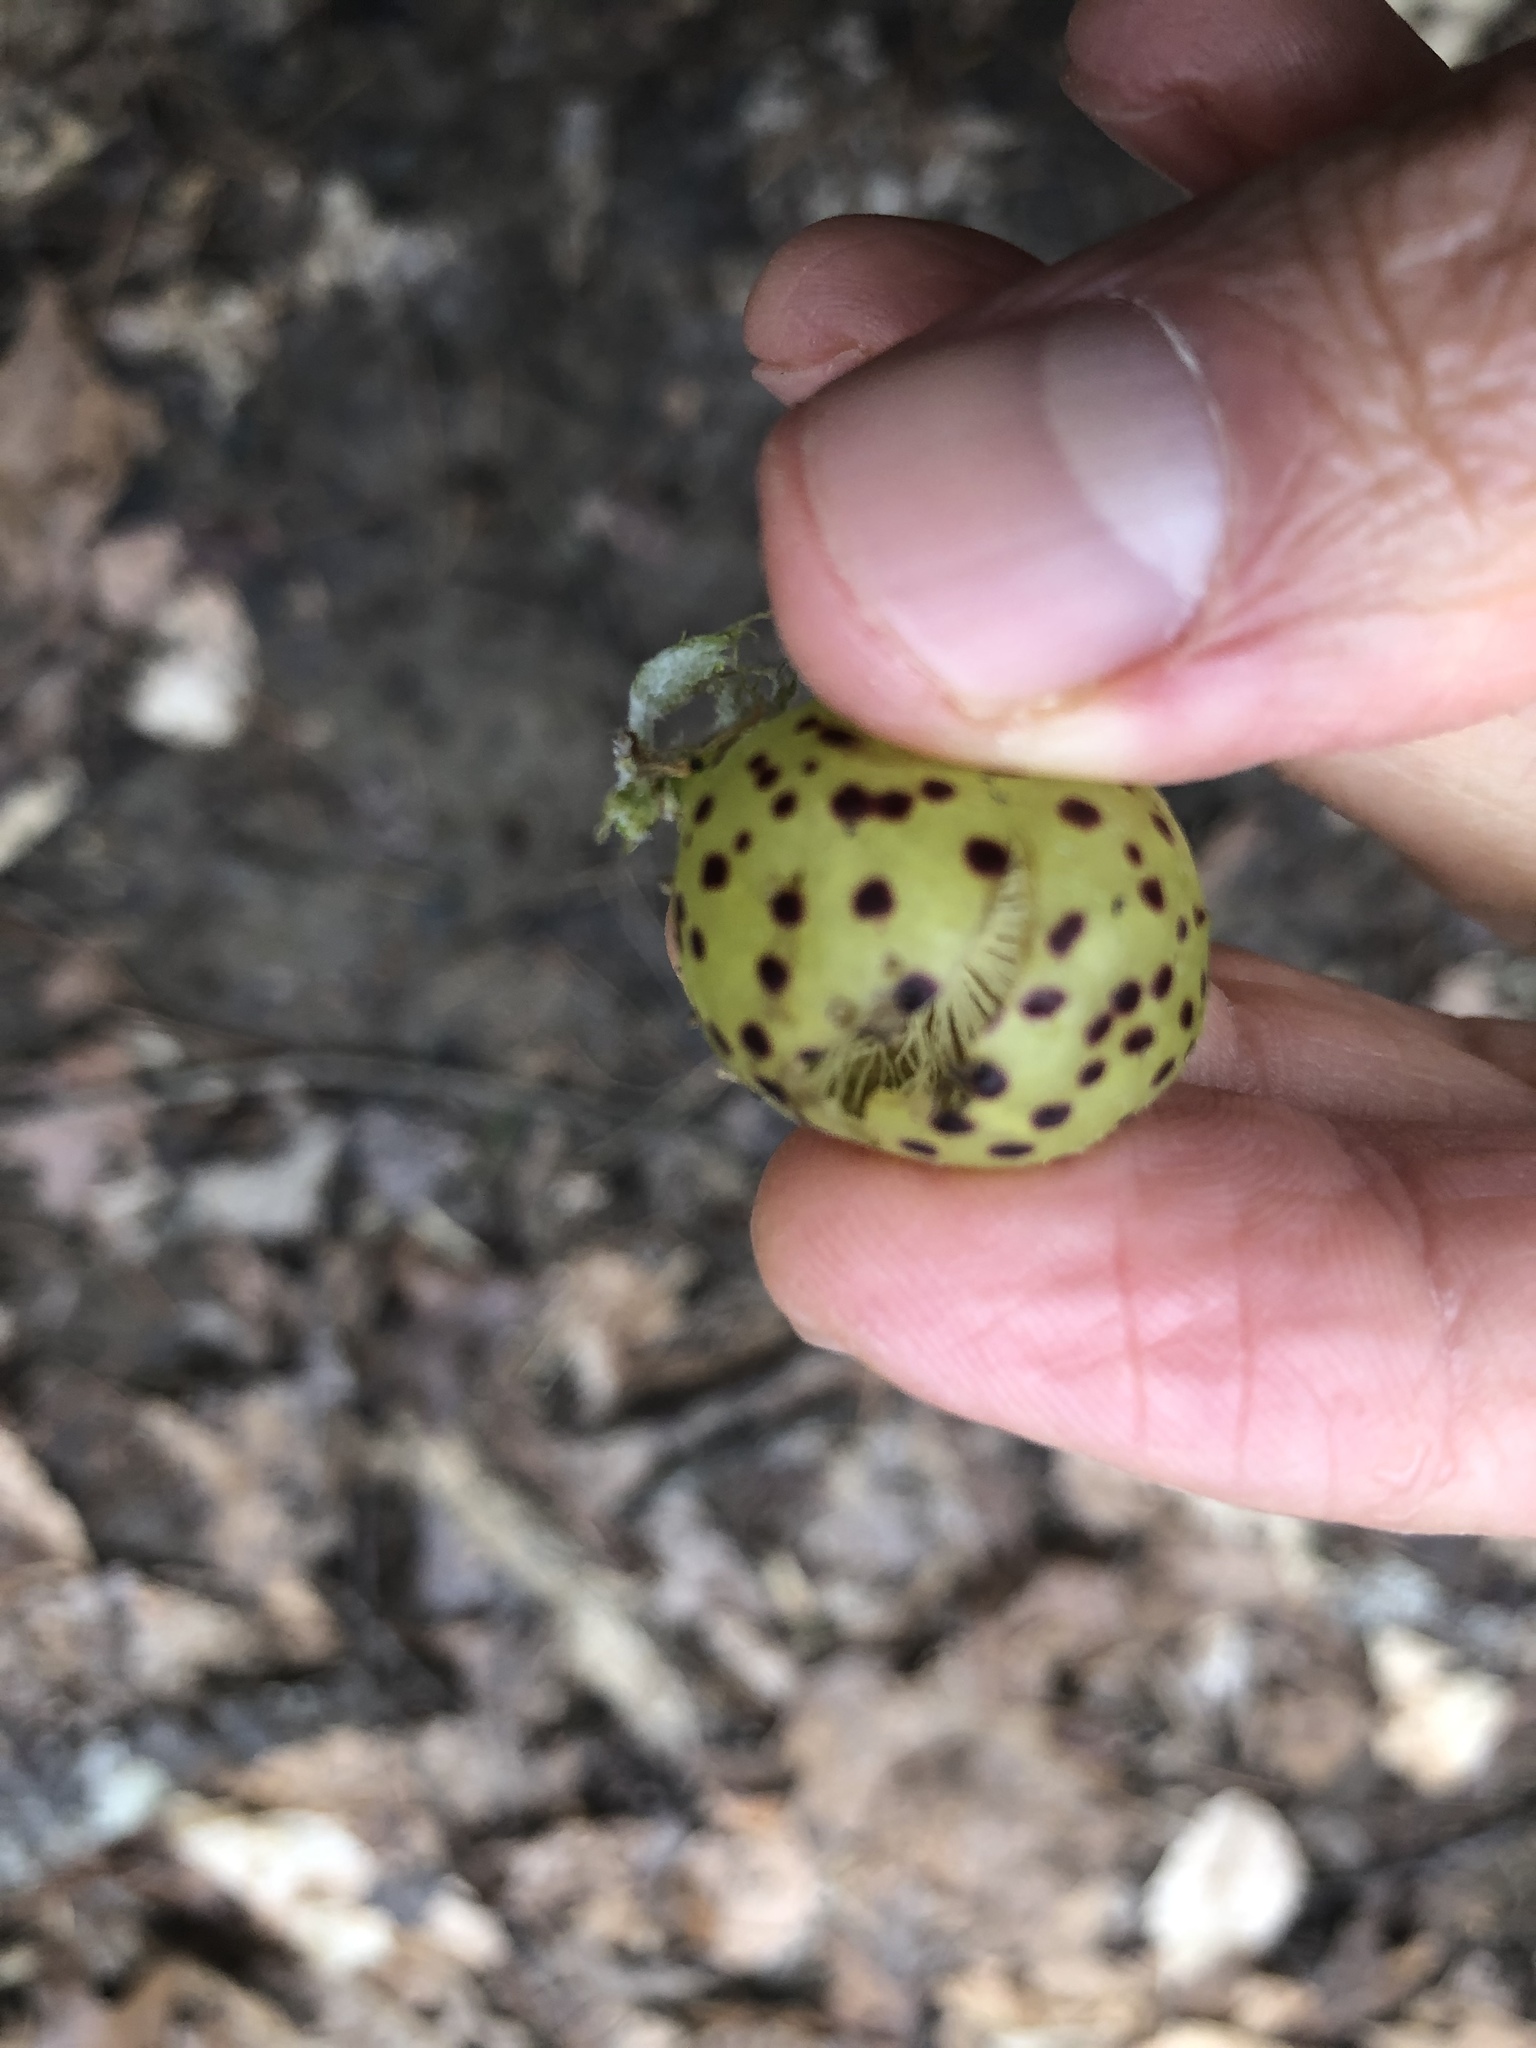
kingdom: Animalia
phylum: Arthropoda
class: Insecta
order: Hymenoptera
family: Cynipidae
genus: Amphibolips
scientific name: Amphibolips
